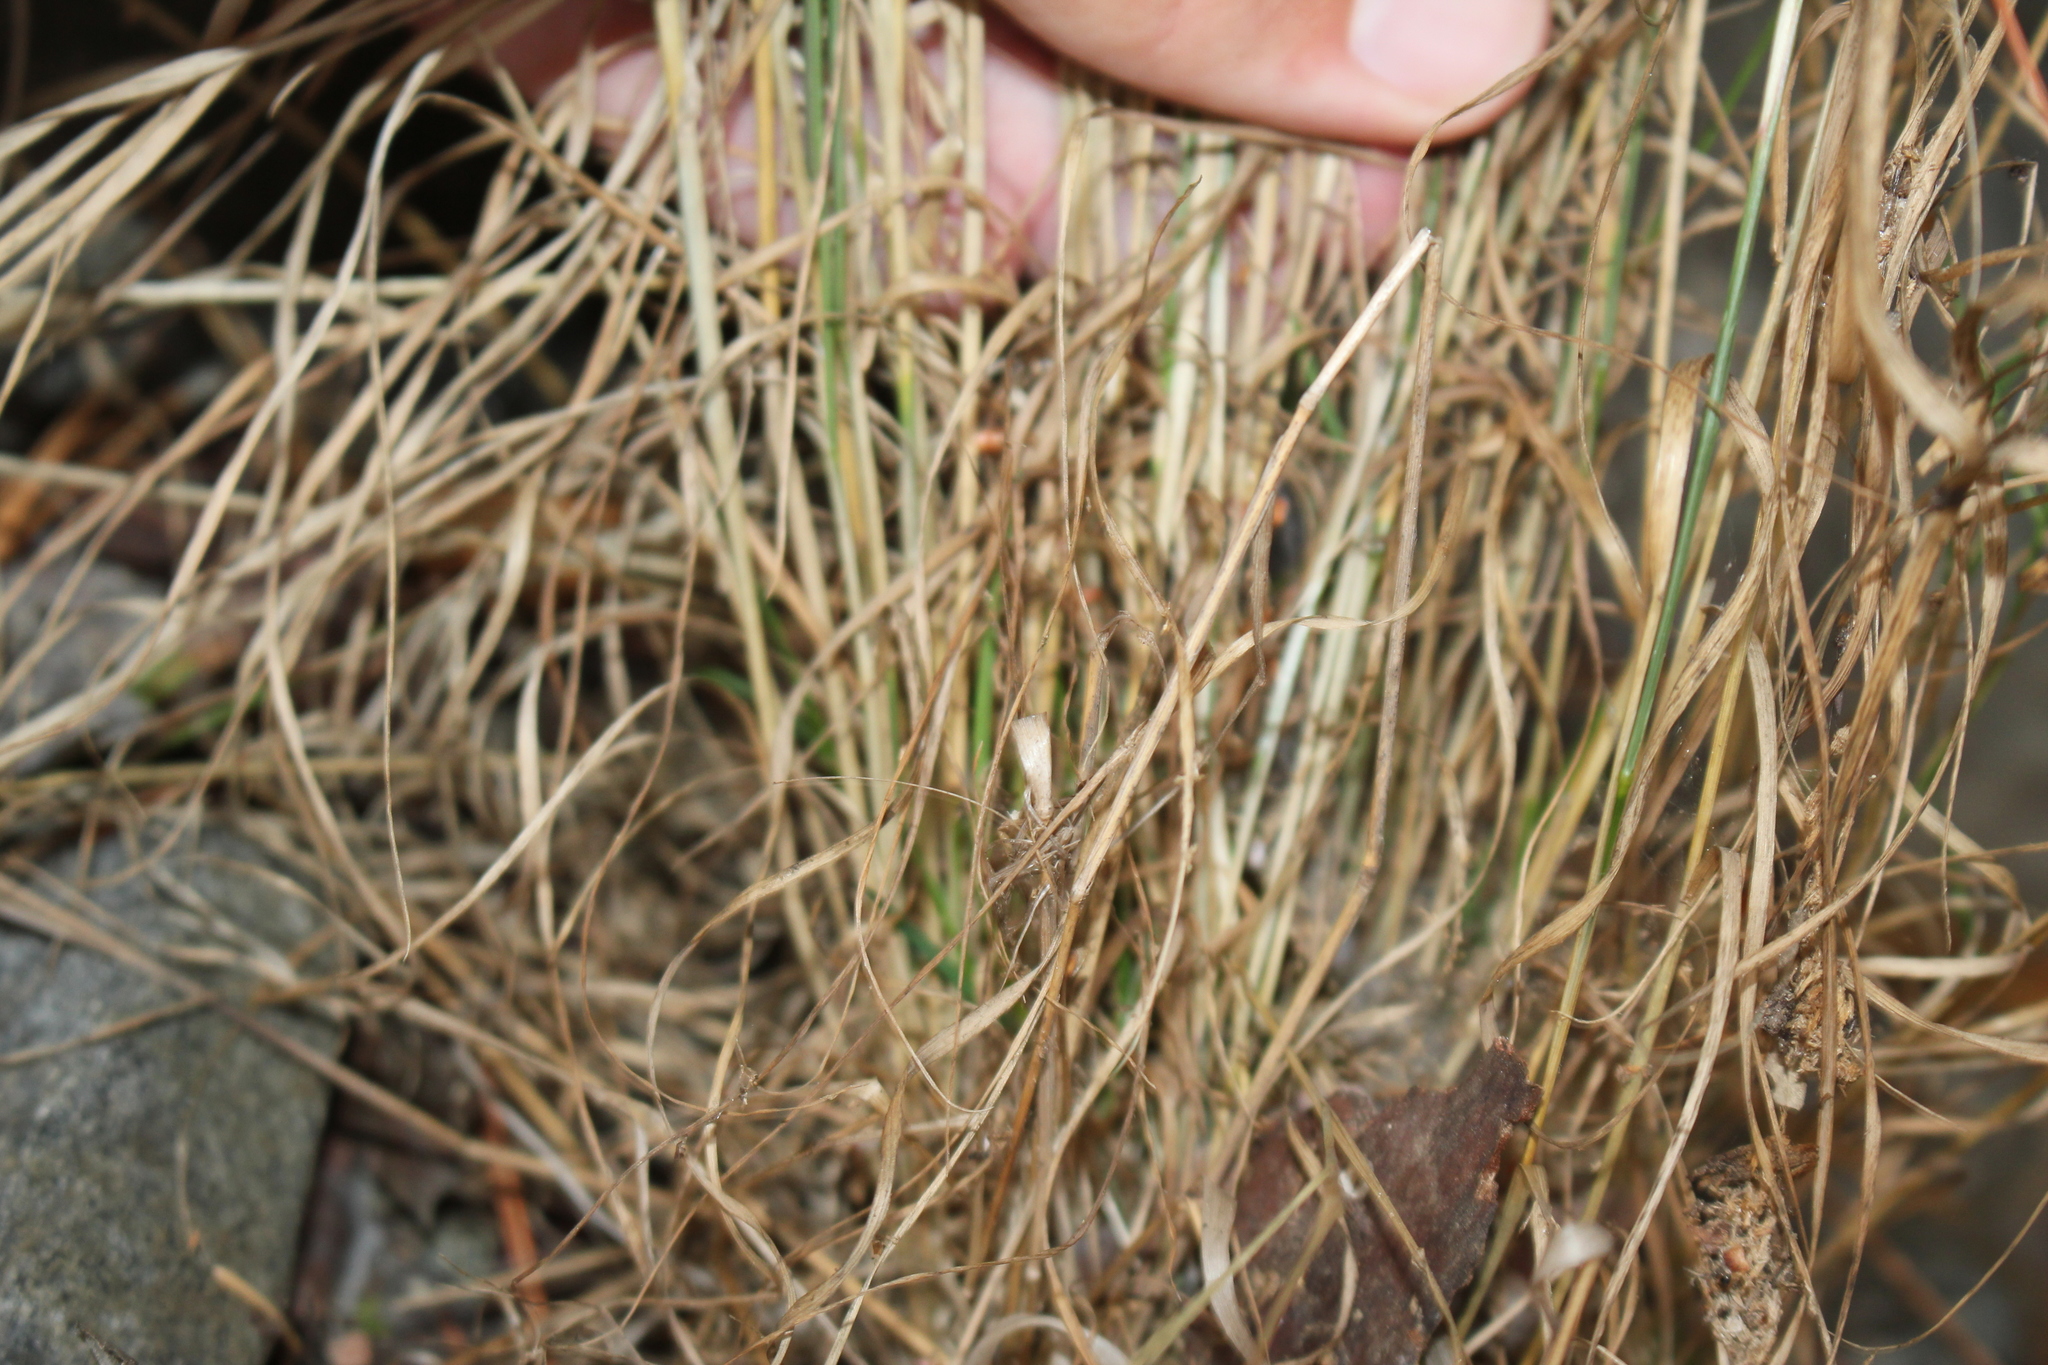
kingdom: Plantae
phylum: Tracheophyta
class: Liliopsida
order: Poales
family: Poaceae
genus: Agrostis
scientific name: Agrostis capillaris
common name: Colonial bentgrass
